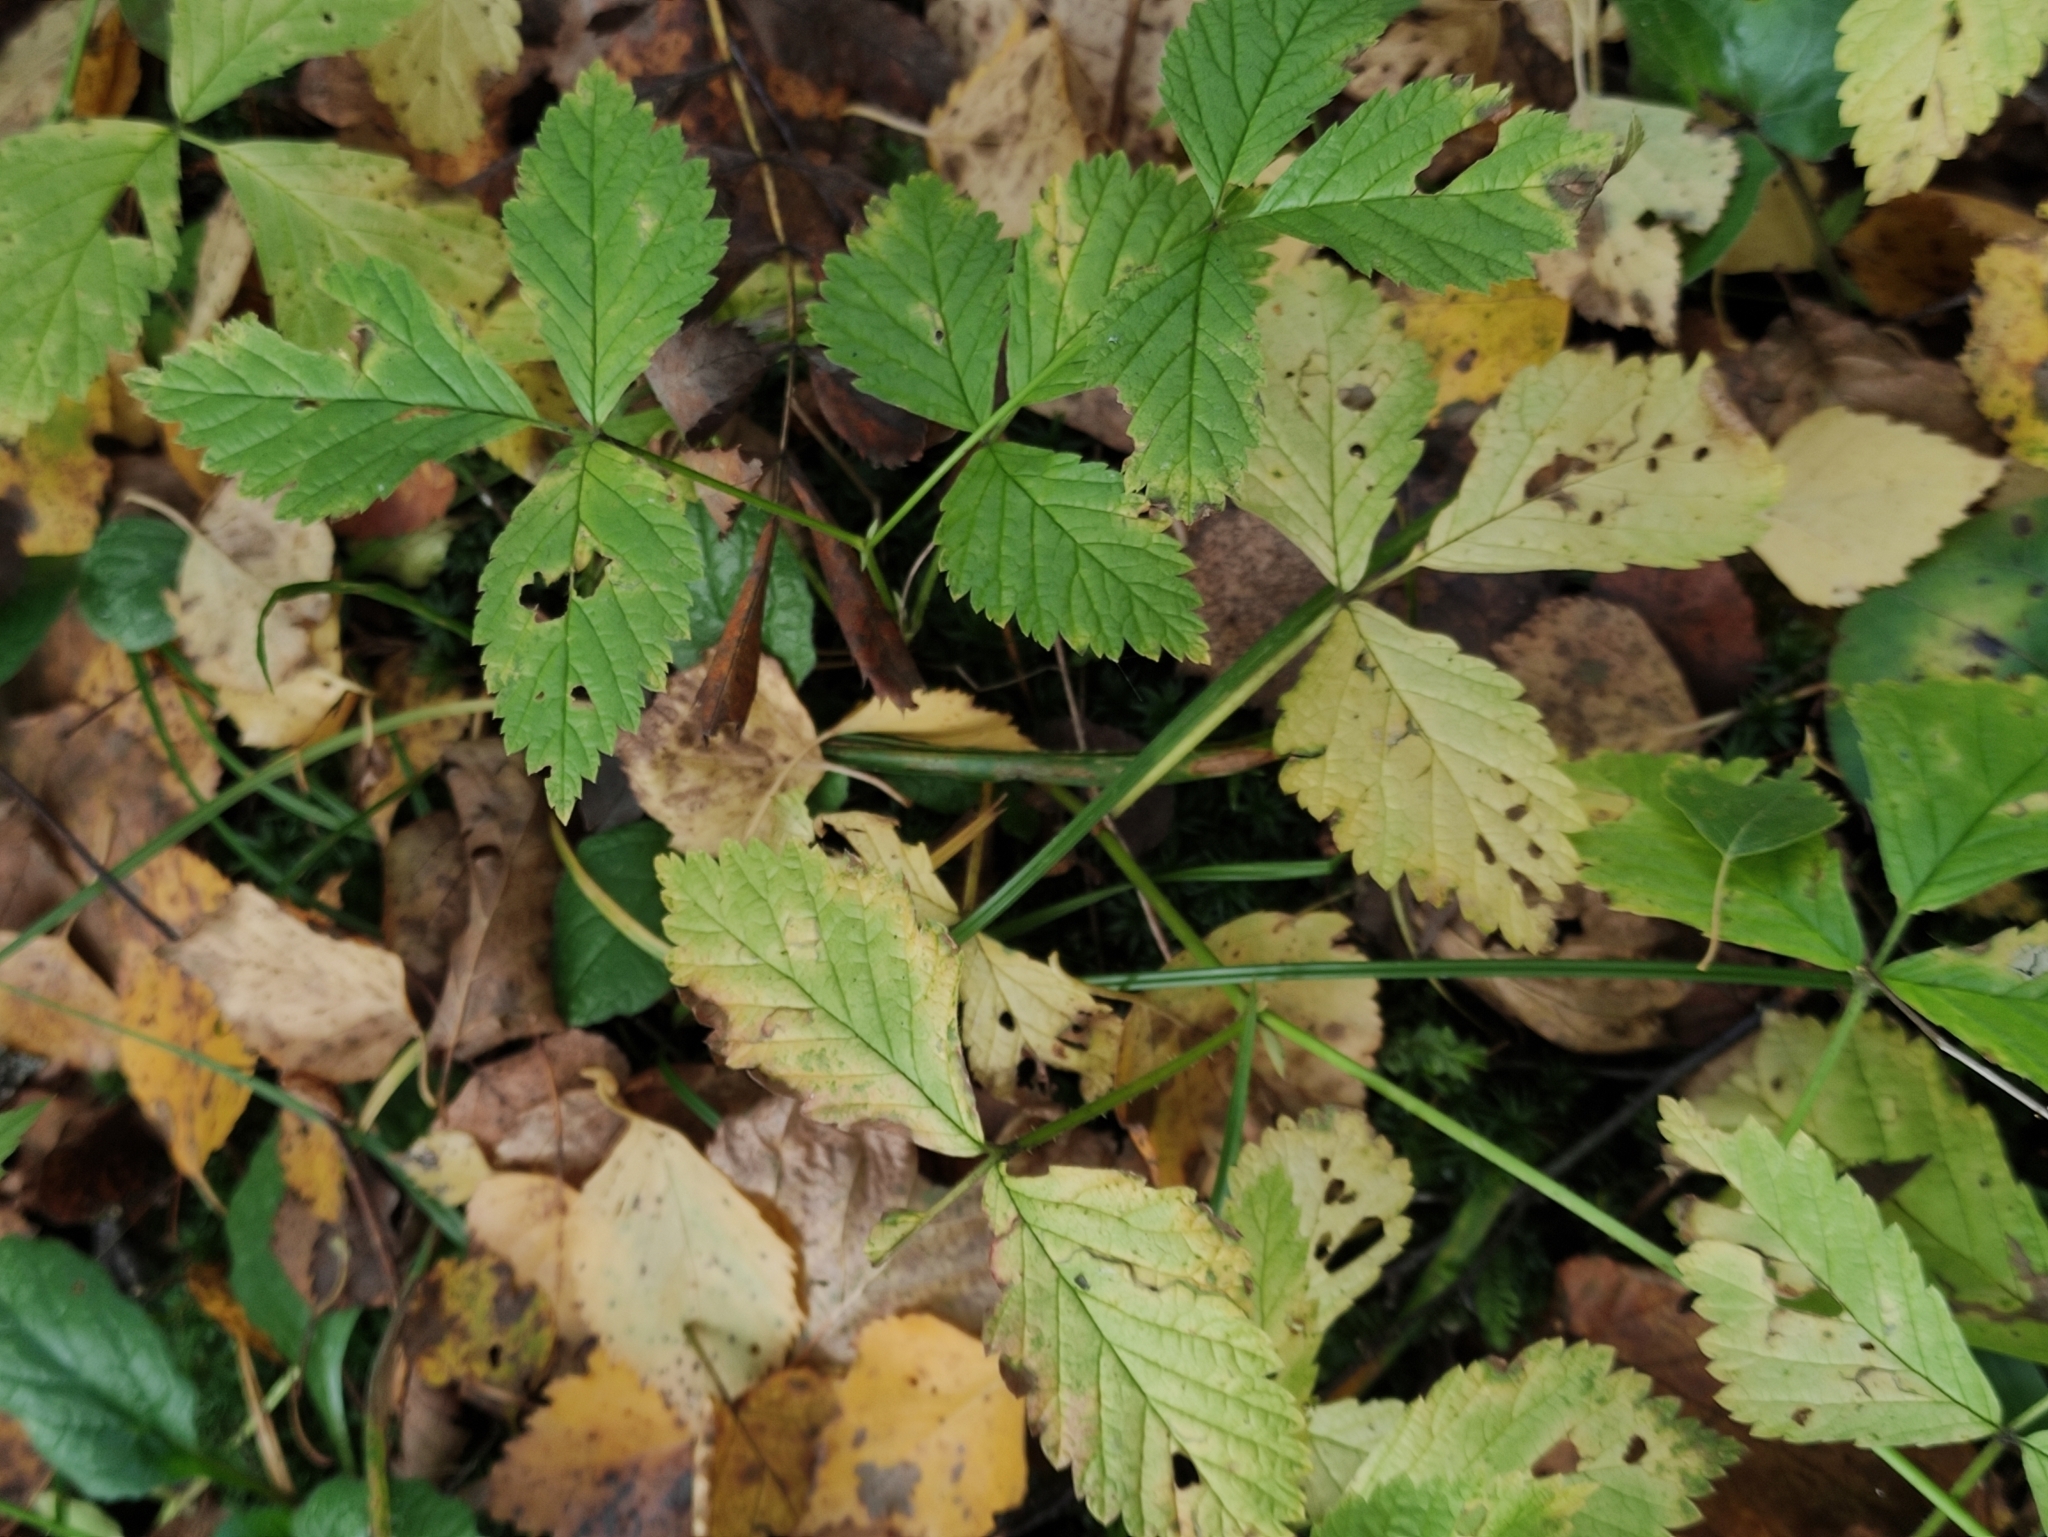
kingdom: Plantae
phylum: Tracheophyta
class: Magnoliopsida
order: Rosales
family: Rosaceae
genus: Rubus
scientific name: Rubus saxatilis
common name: Stone bramble
